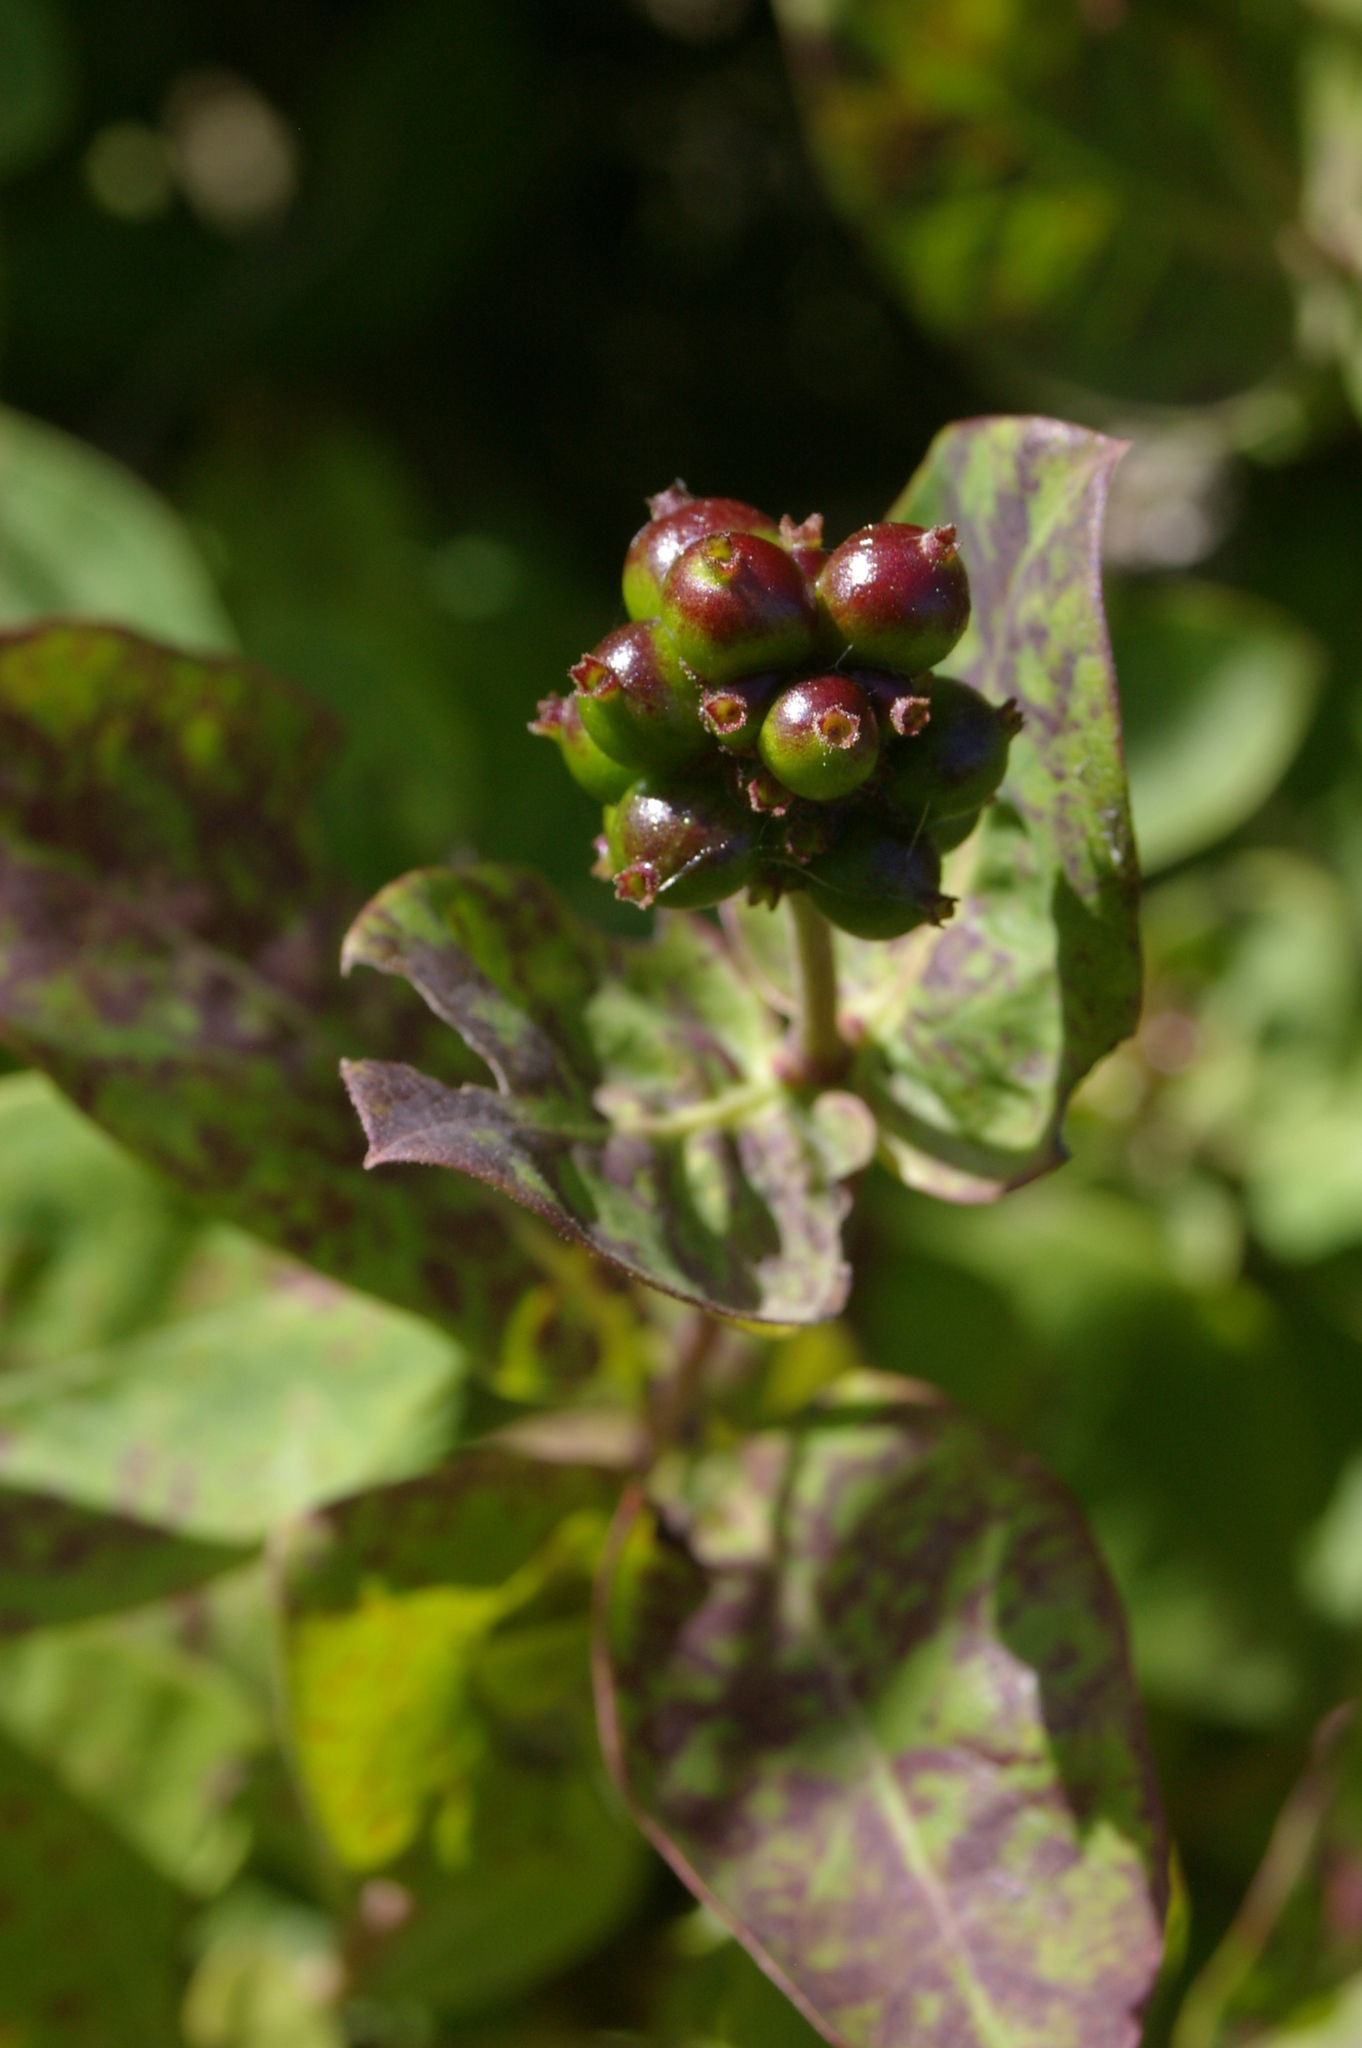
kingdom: Plantae
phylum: Tracheophyta
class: Magnoliopsida
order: Dipsacales
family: Caprifoliaceae
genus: Lonicera
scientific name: Lonicera periclymenum
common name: European honeysuckle
